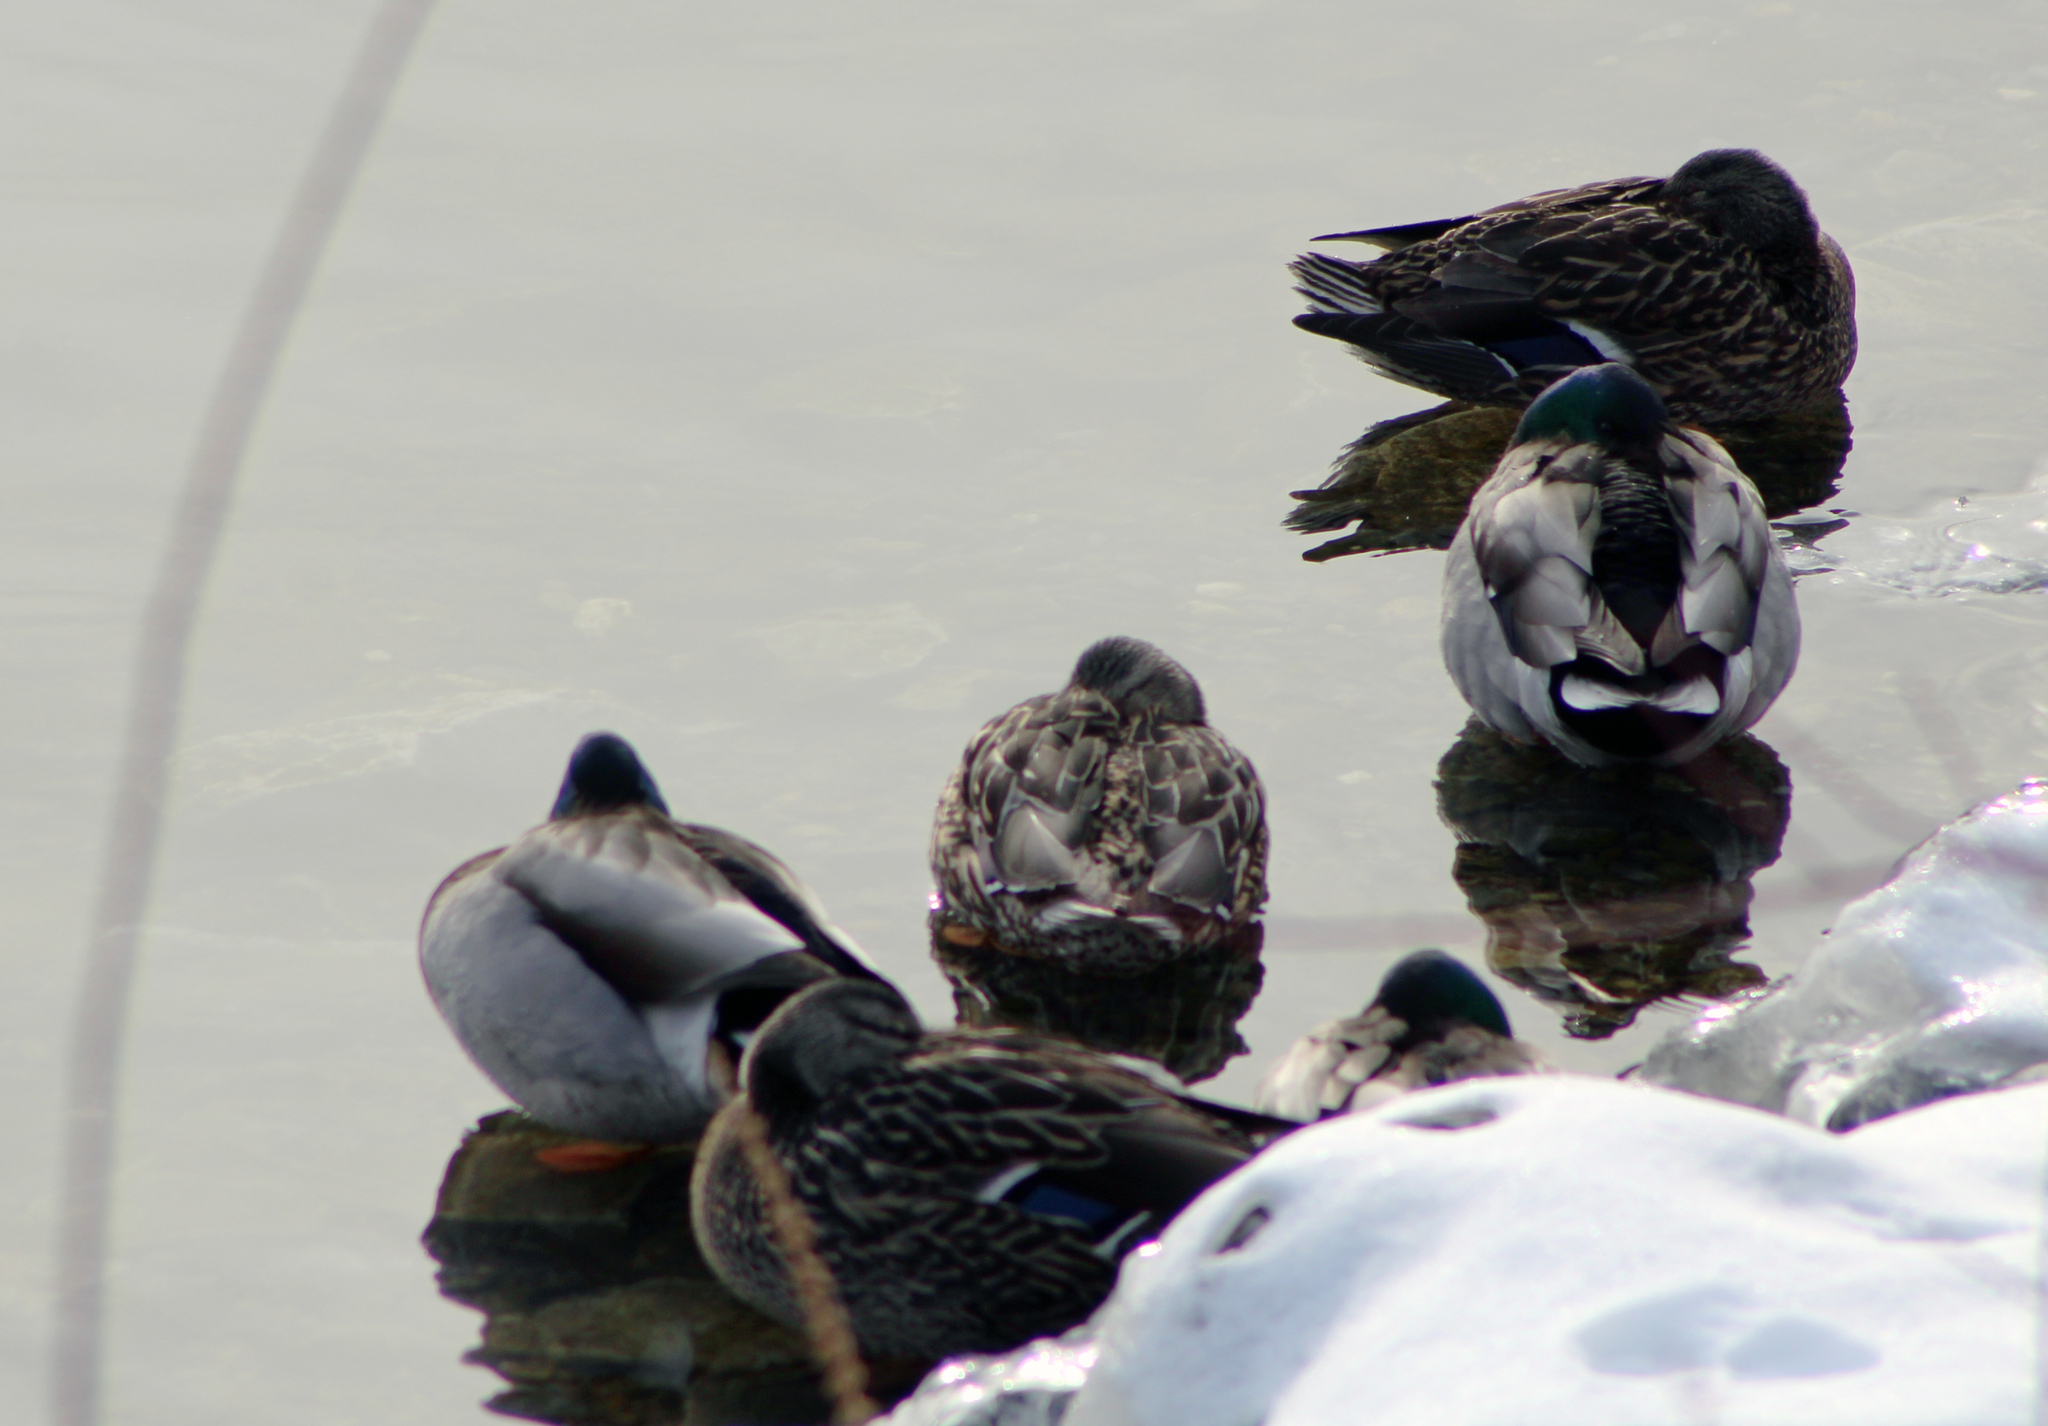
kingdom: Animalia
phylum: Chordata
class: Aves
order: Anseriformes
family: Anatidae
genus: Anas
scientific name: Anas platyrhynchos
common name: Mallard
